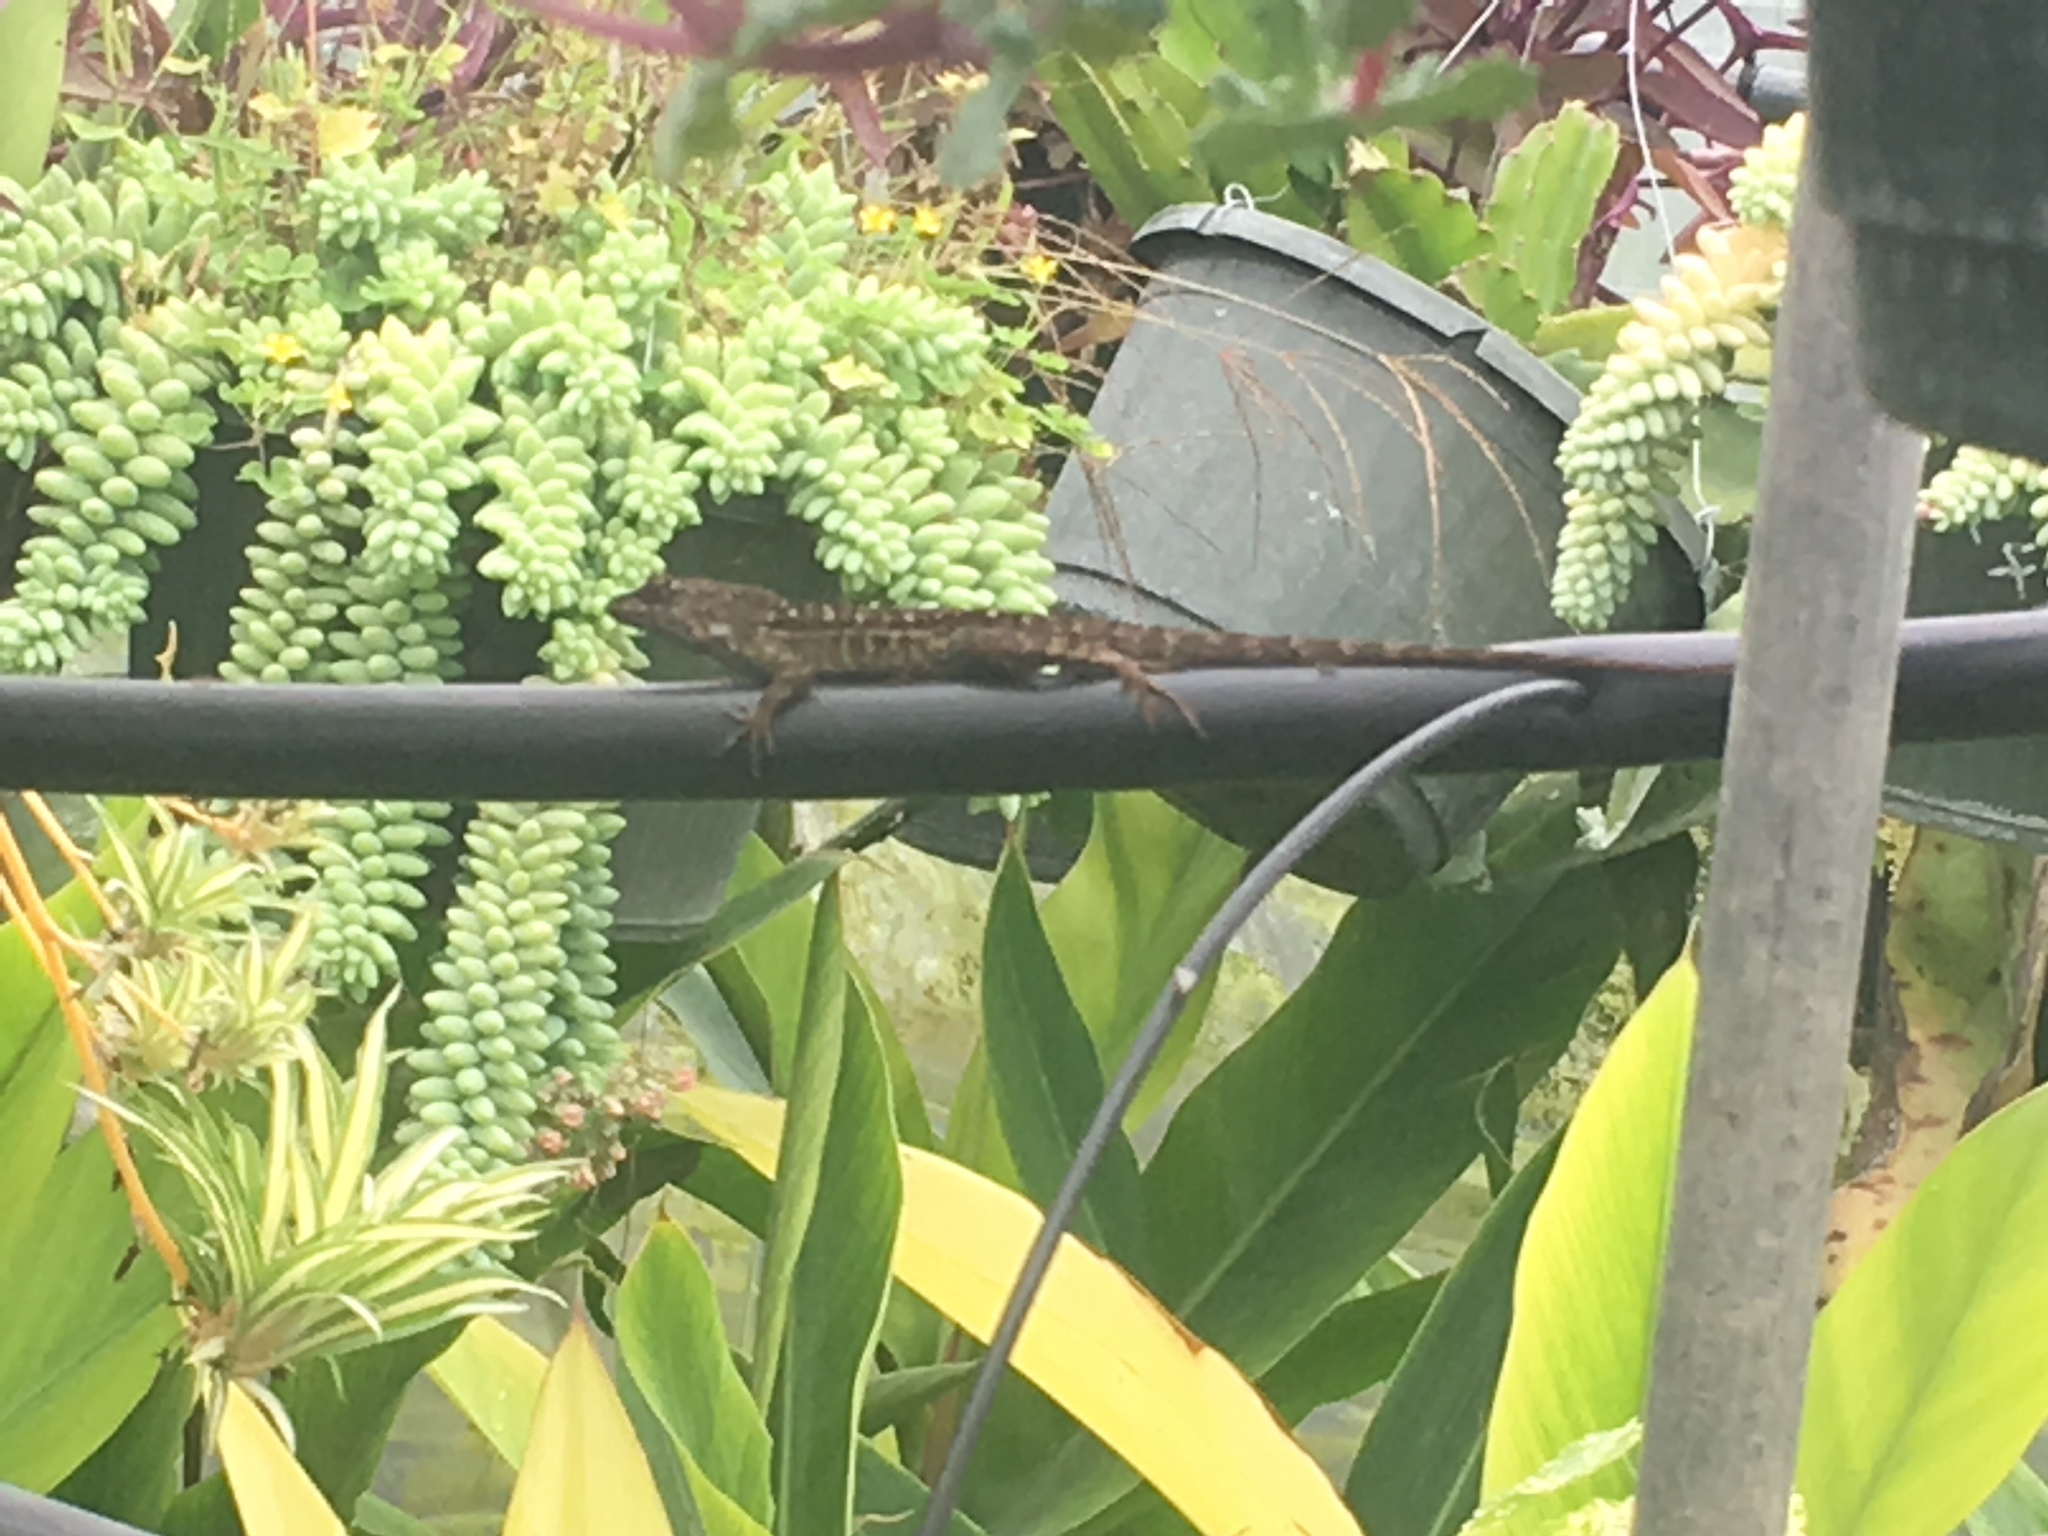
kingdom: Animalia
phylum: Chordata
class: Squamata
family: Dactyloidae
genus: Anolis
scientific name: Anolis sagrei
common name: Brown anole
